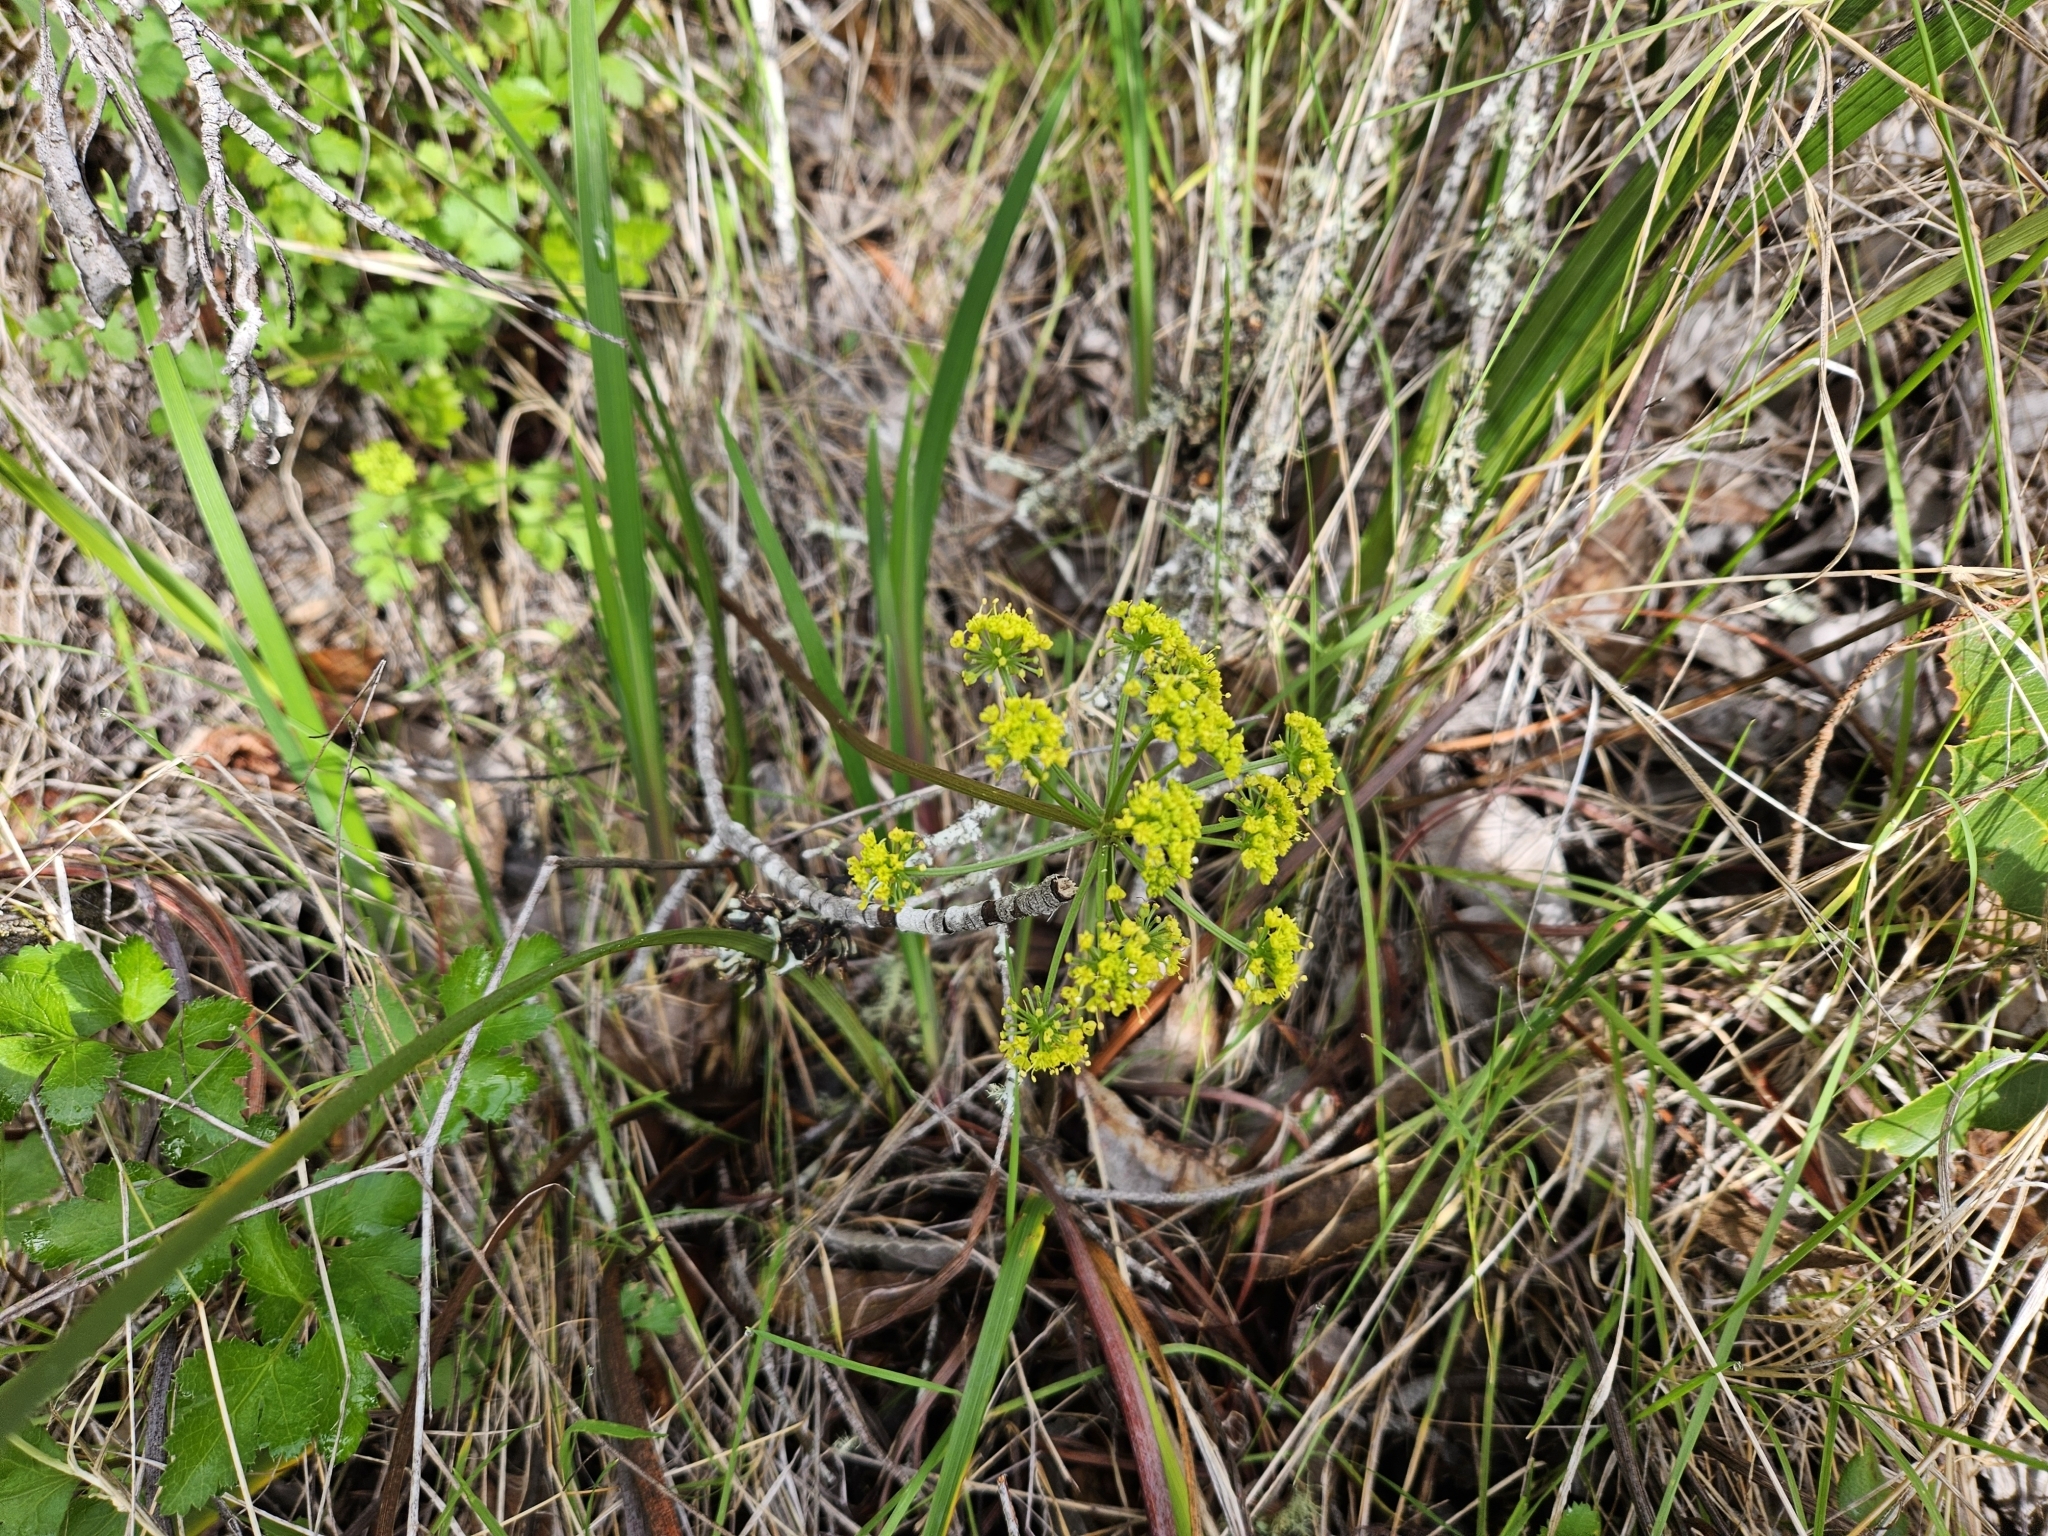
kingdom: Plantae
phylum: Tracheophyta
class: Magnoliopsida
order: Apiales
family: Apiaceae
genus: Tauschia
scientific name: Tauschia kelloggii
